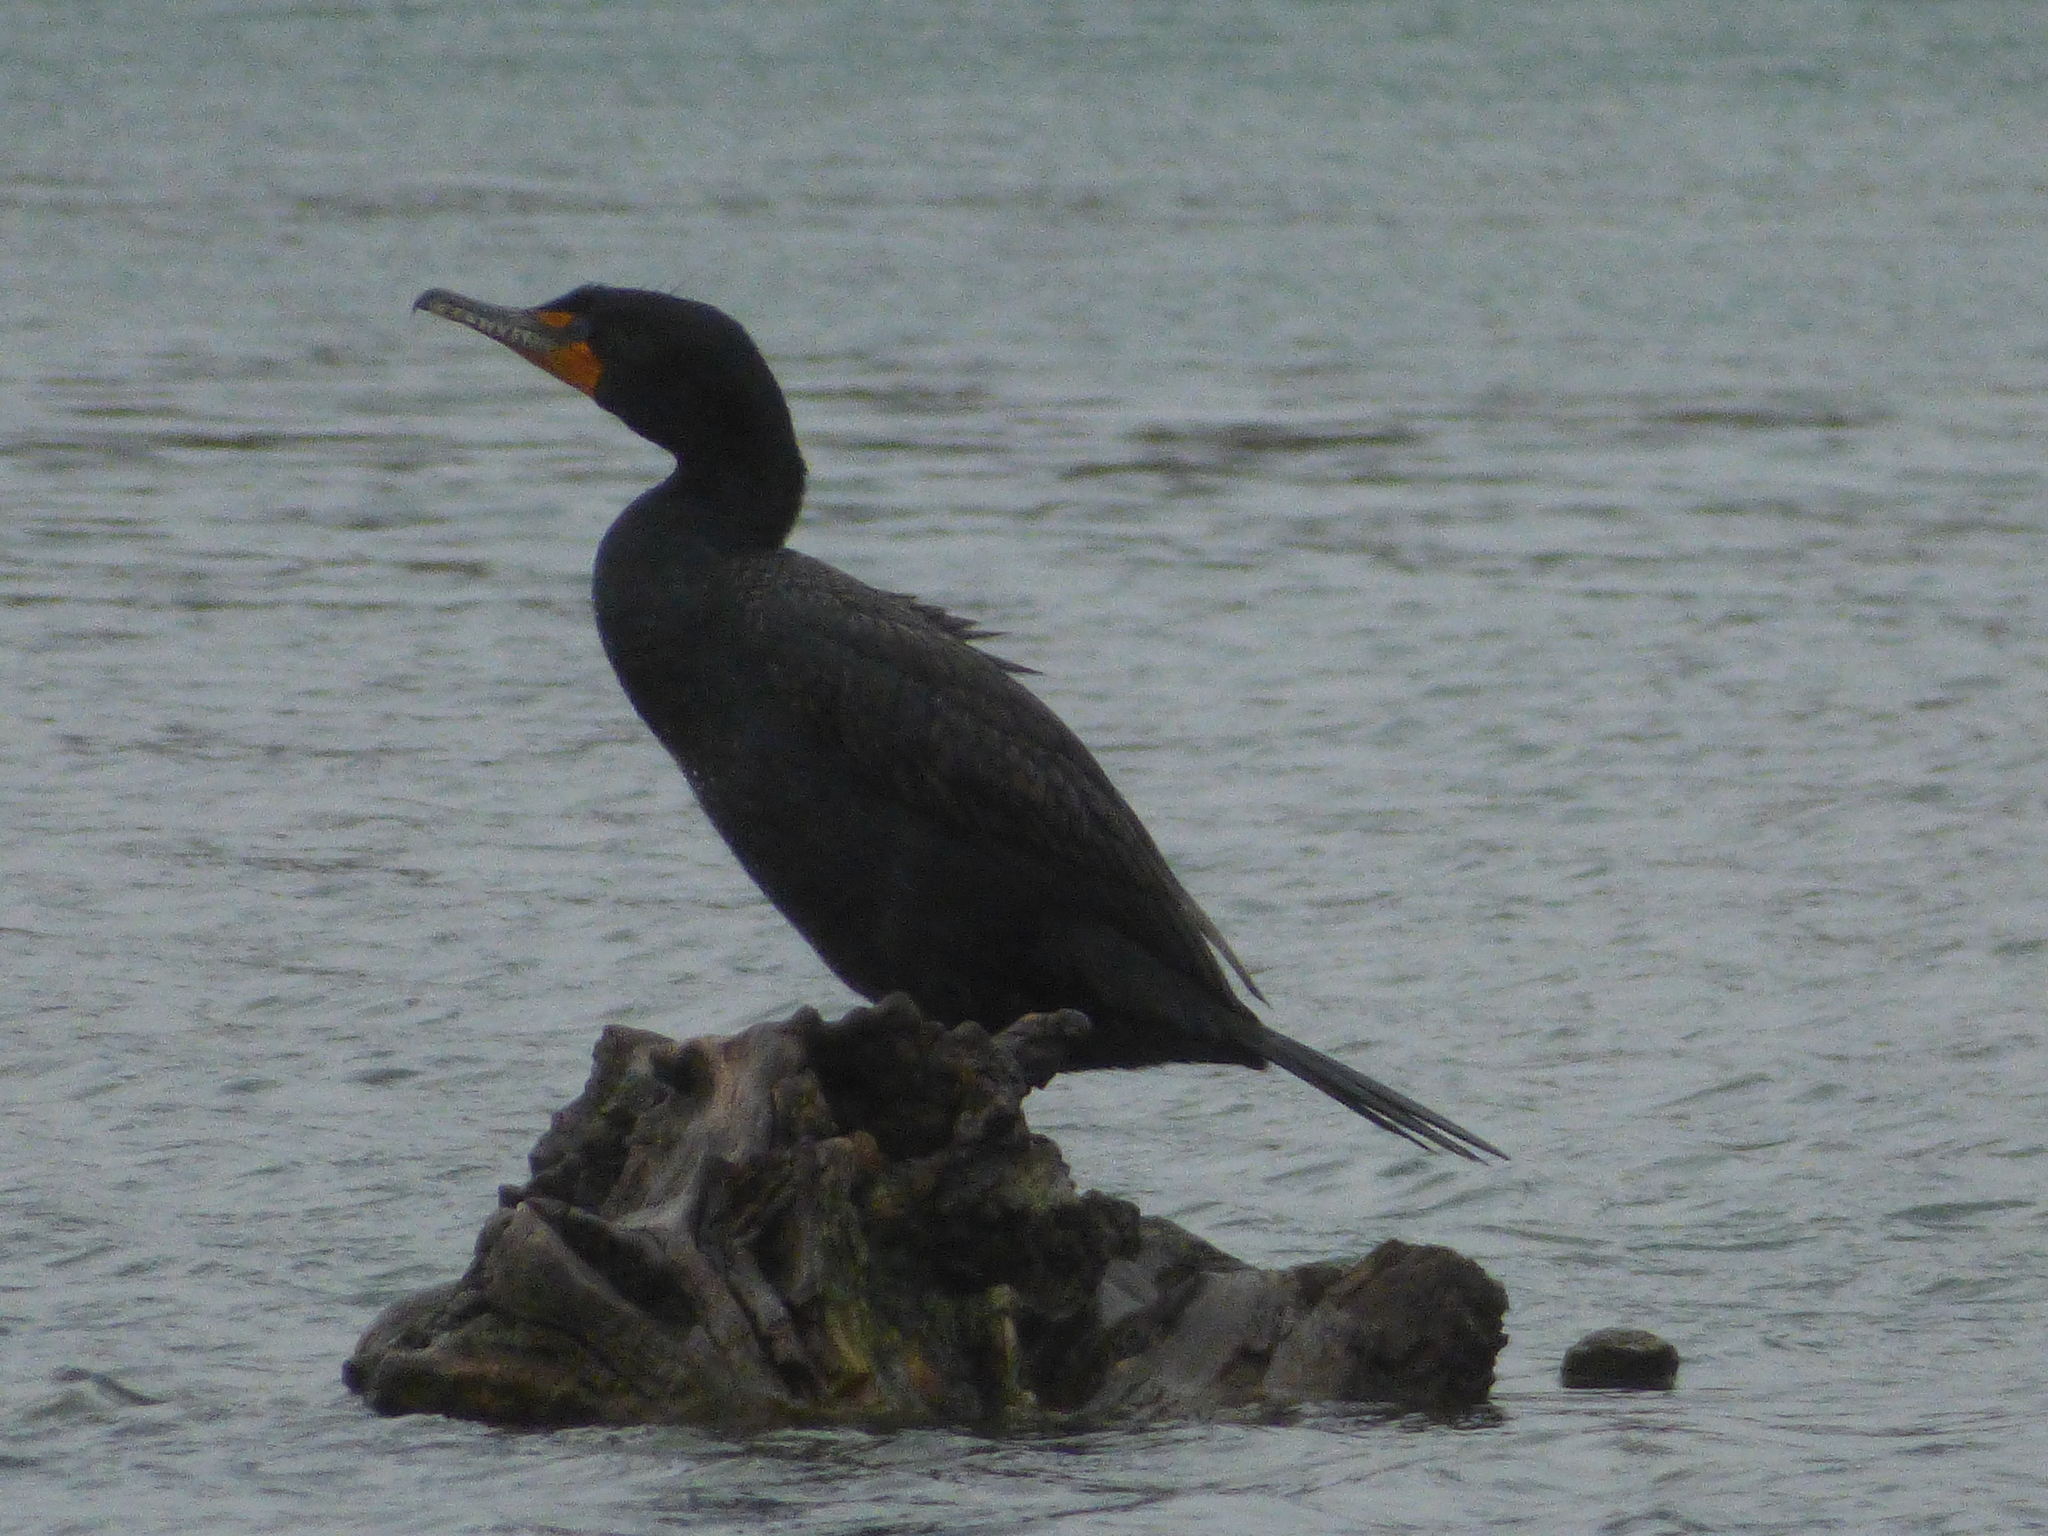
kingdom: Animalia
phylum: Chordata
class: Aves
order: Suliformes
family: Phalacrocoracidae
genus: Phalacrocorax
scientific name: Phalacrocorax auritus
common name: Double-crested cormorant
